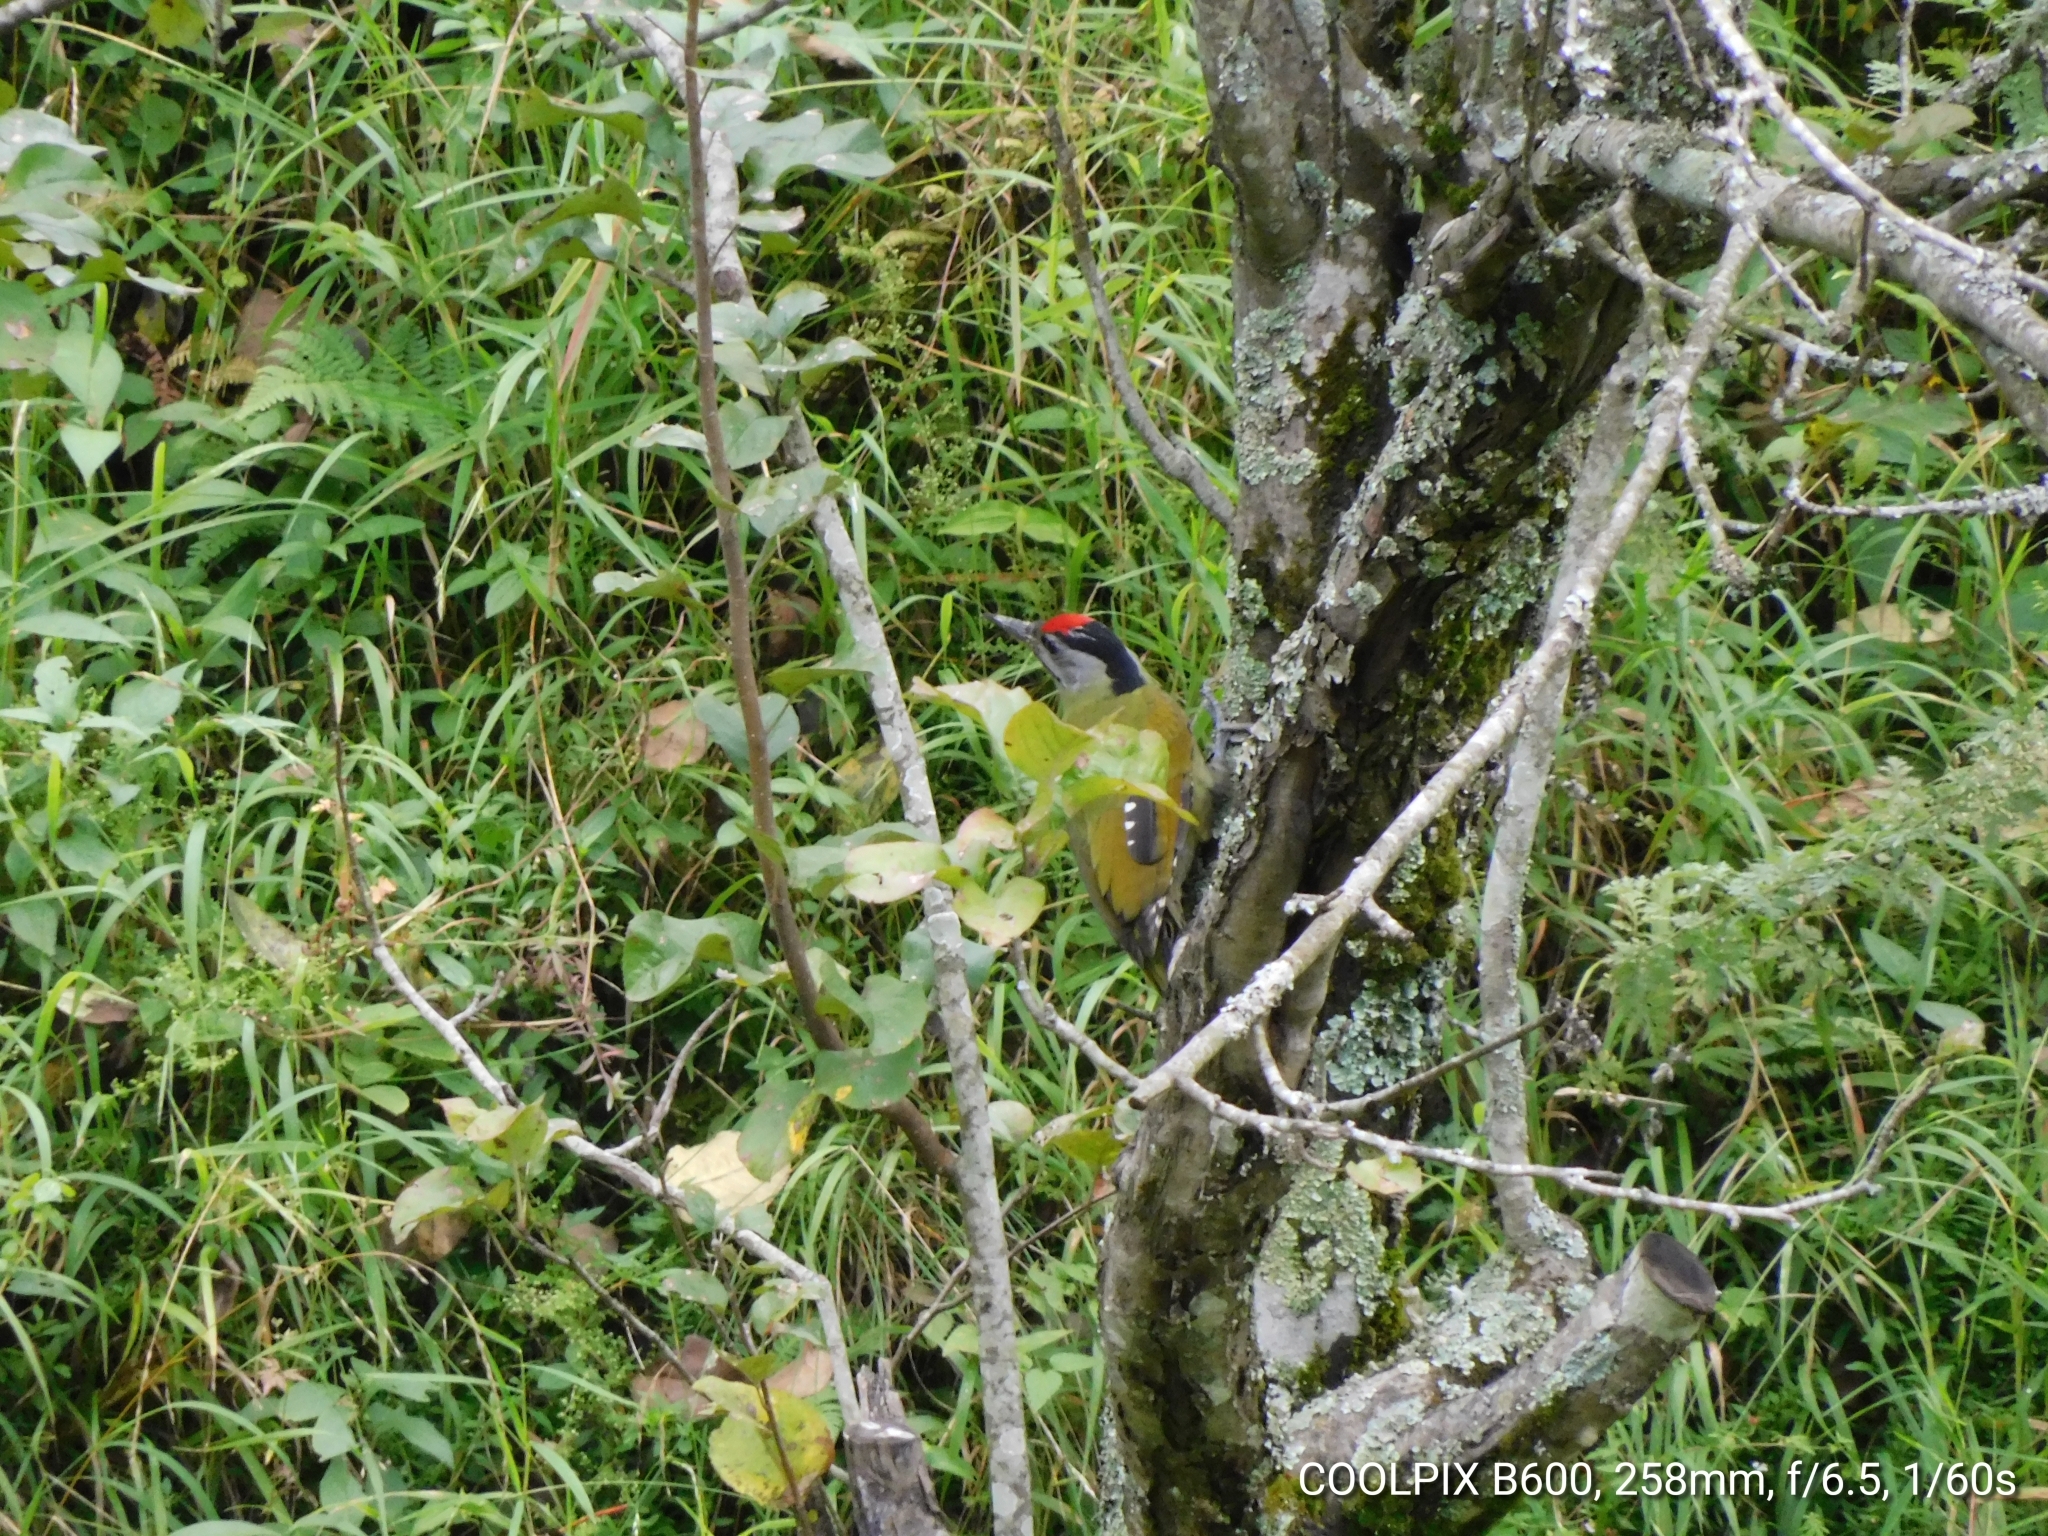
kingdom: Animalia
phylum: Chordata
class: Aves
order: Piciformes
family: Picidae
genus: Picus
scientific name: Picus canus
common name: Grey-headed woodpecker
